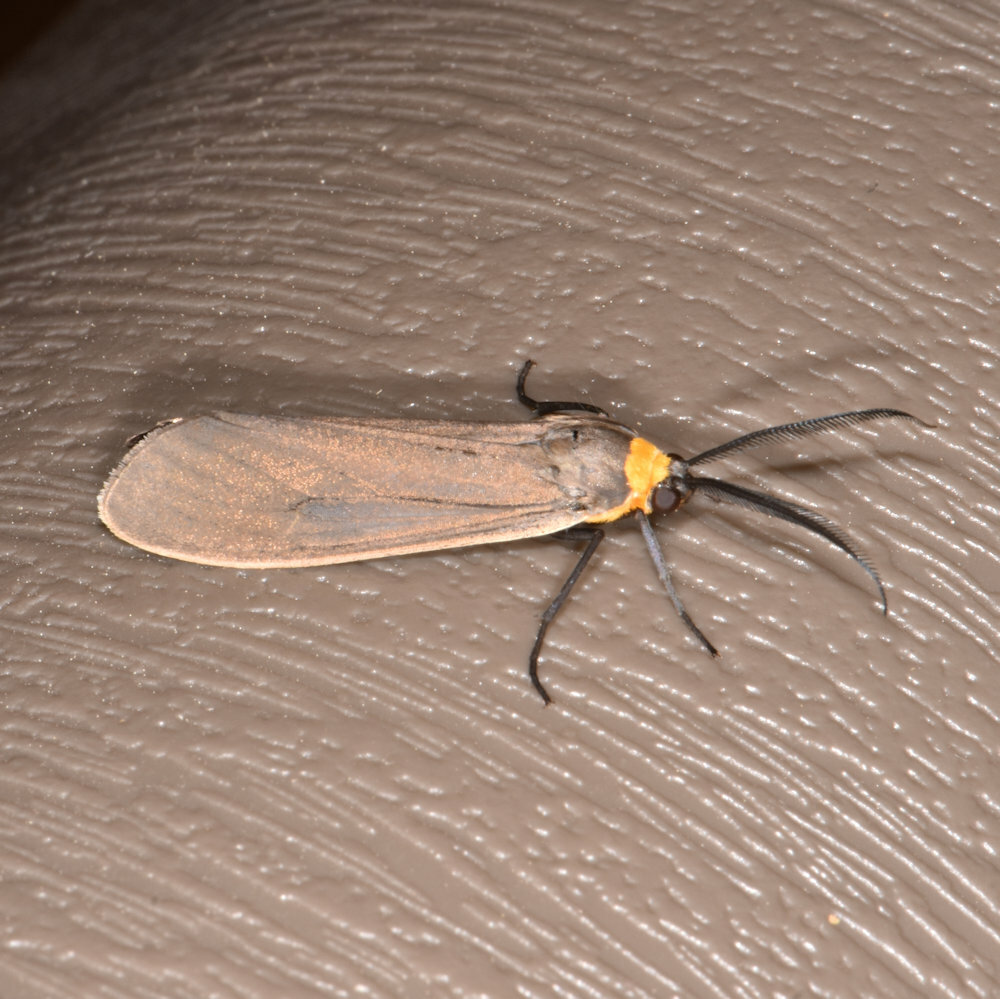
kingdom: Animalia
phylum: Arthropoda
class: Insecta
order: Lepidoptera
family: Erebidae
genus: Cisseps
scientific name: Cisseps fulvicollis
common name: Yellow-collared scape moth
